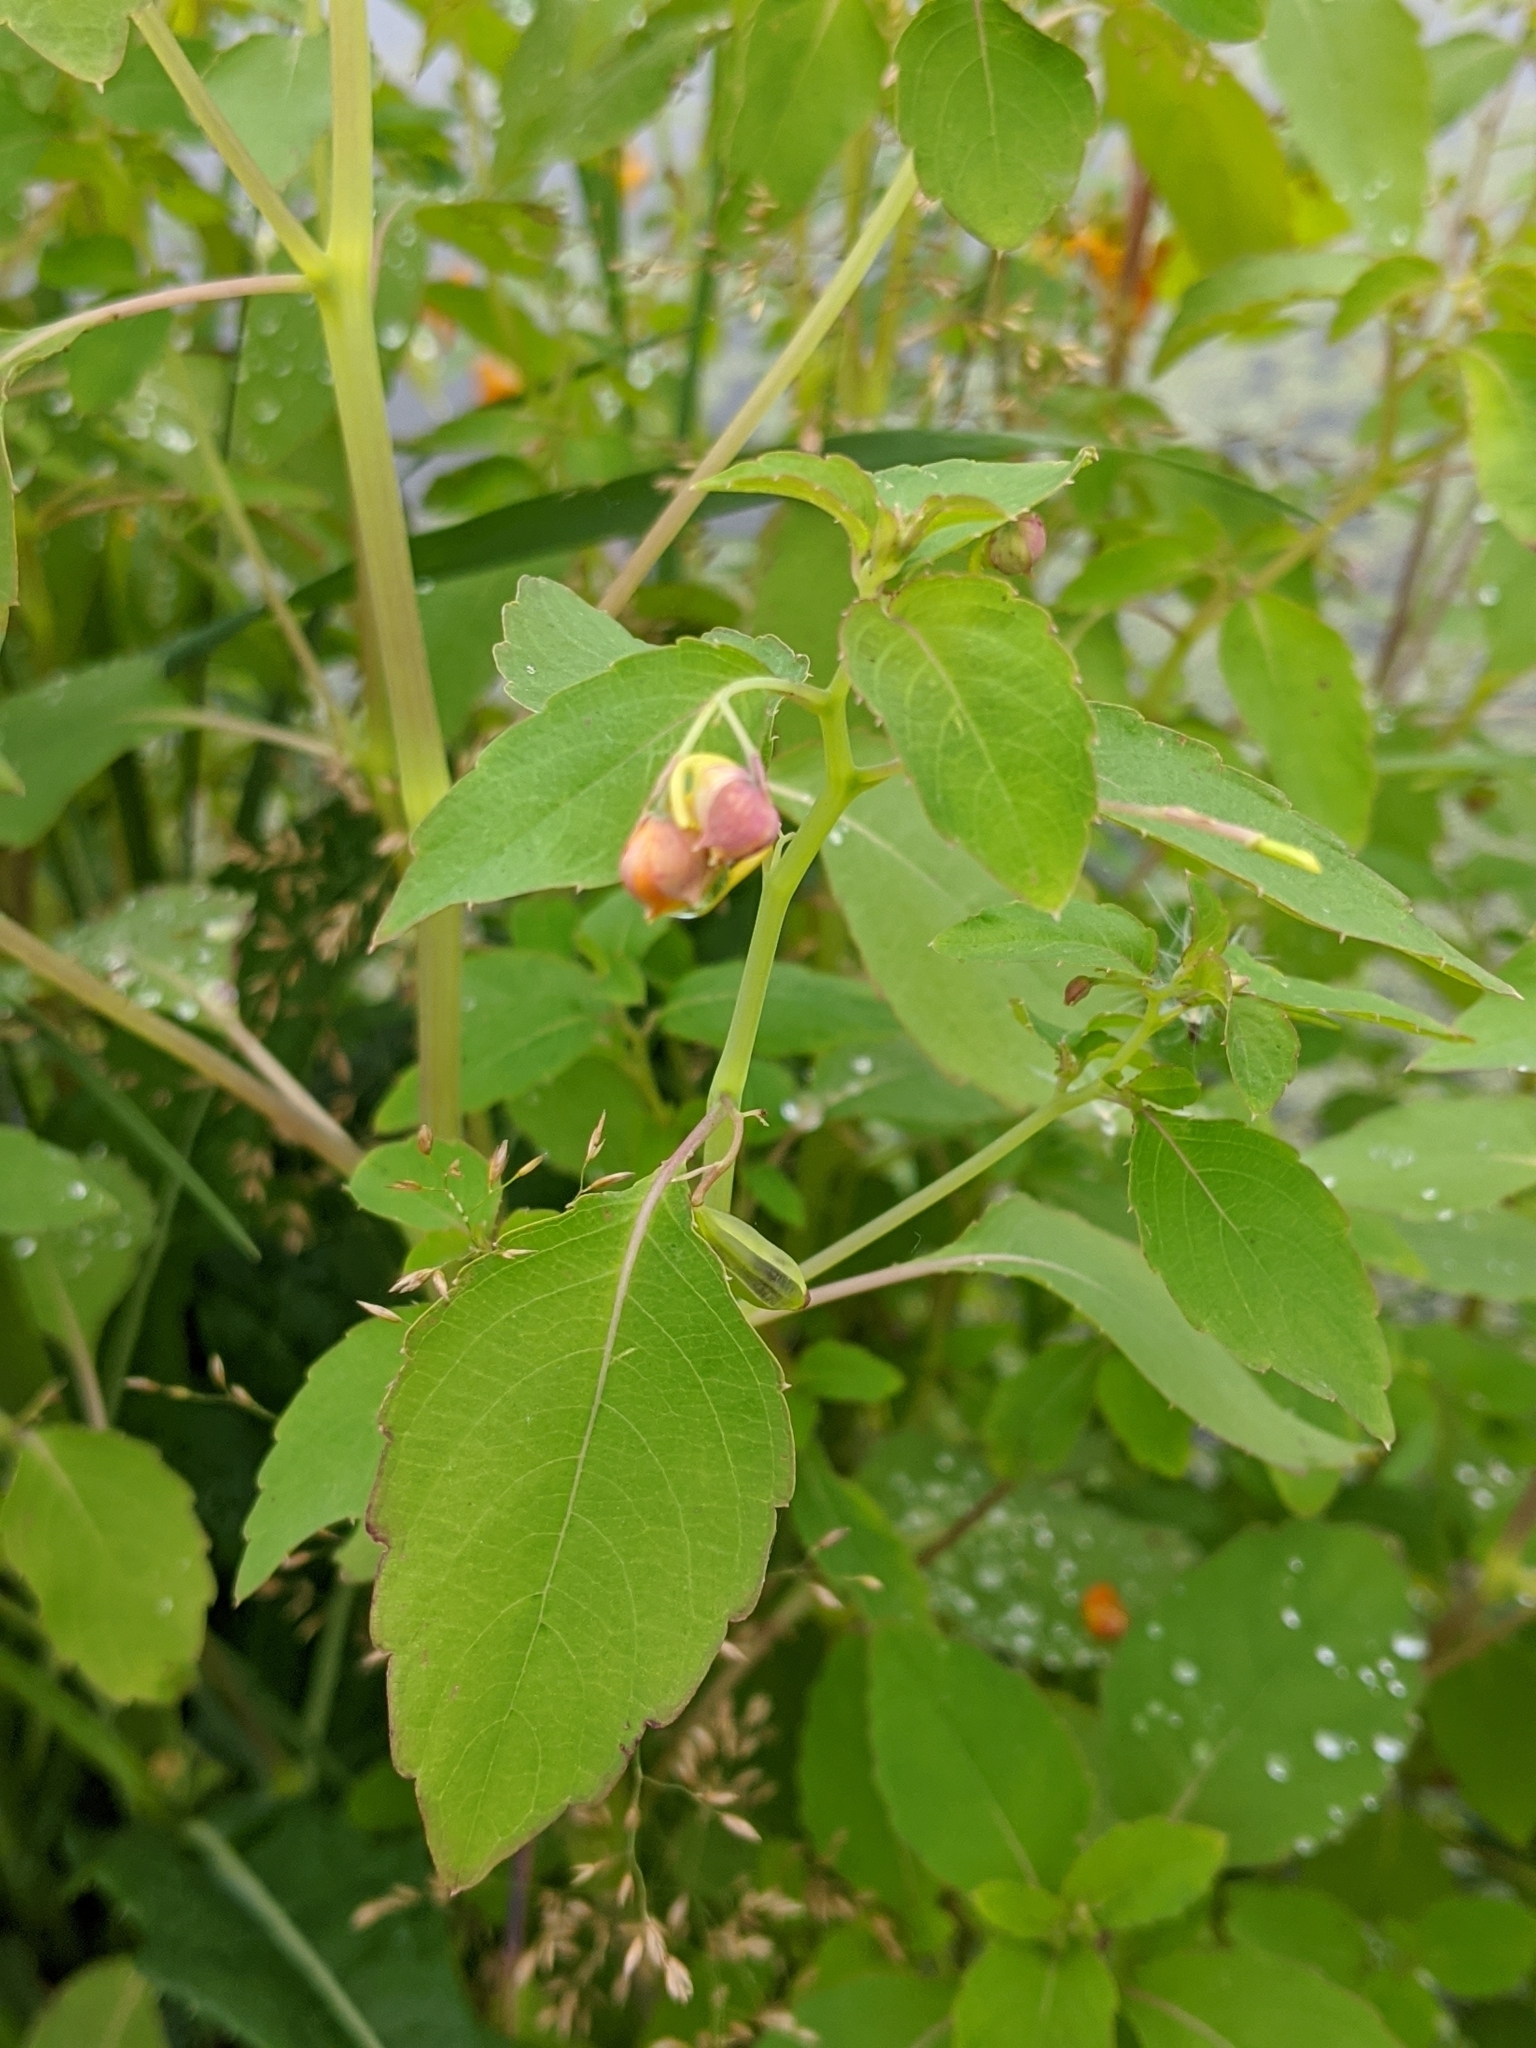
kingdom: Plantae
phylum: Tracheophyta
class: Magnoliopsida
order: Ericales
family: Balsaminaceae
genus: Impatiens
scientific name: Impatiens capensis
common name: Orange balsam
